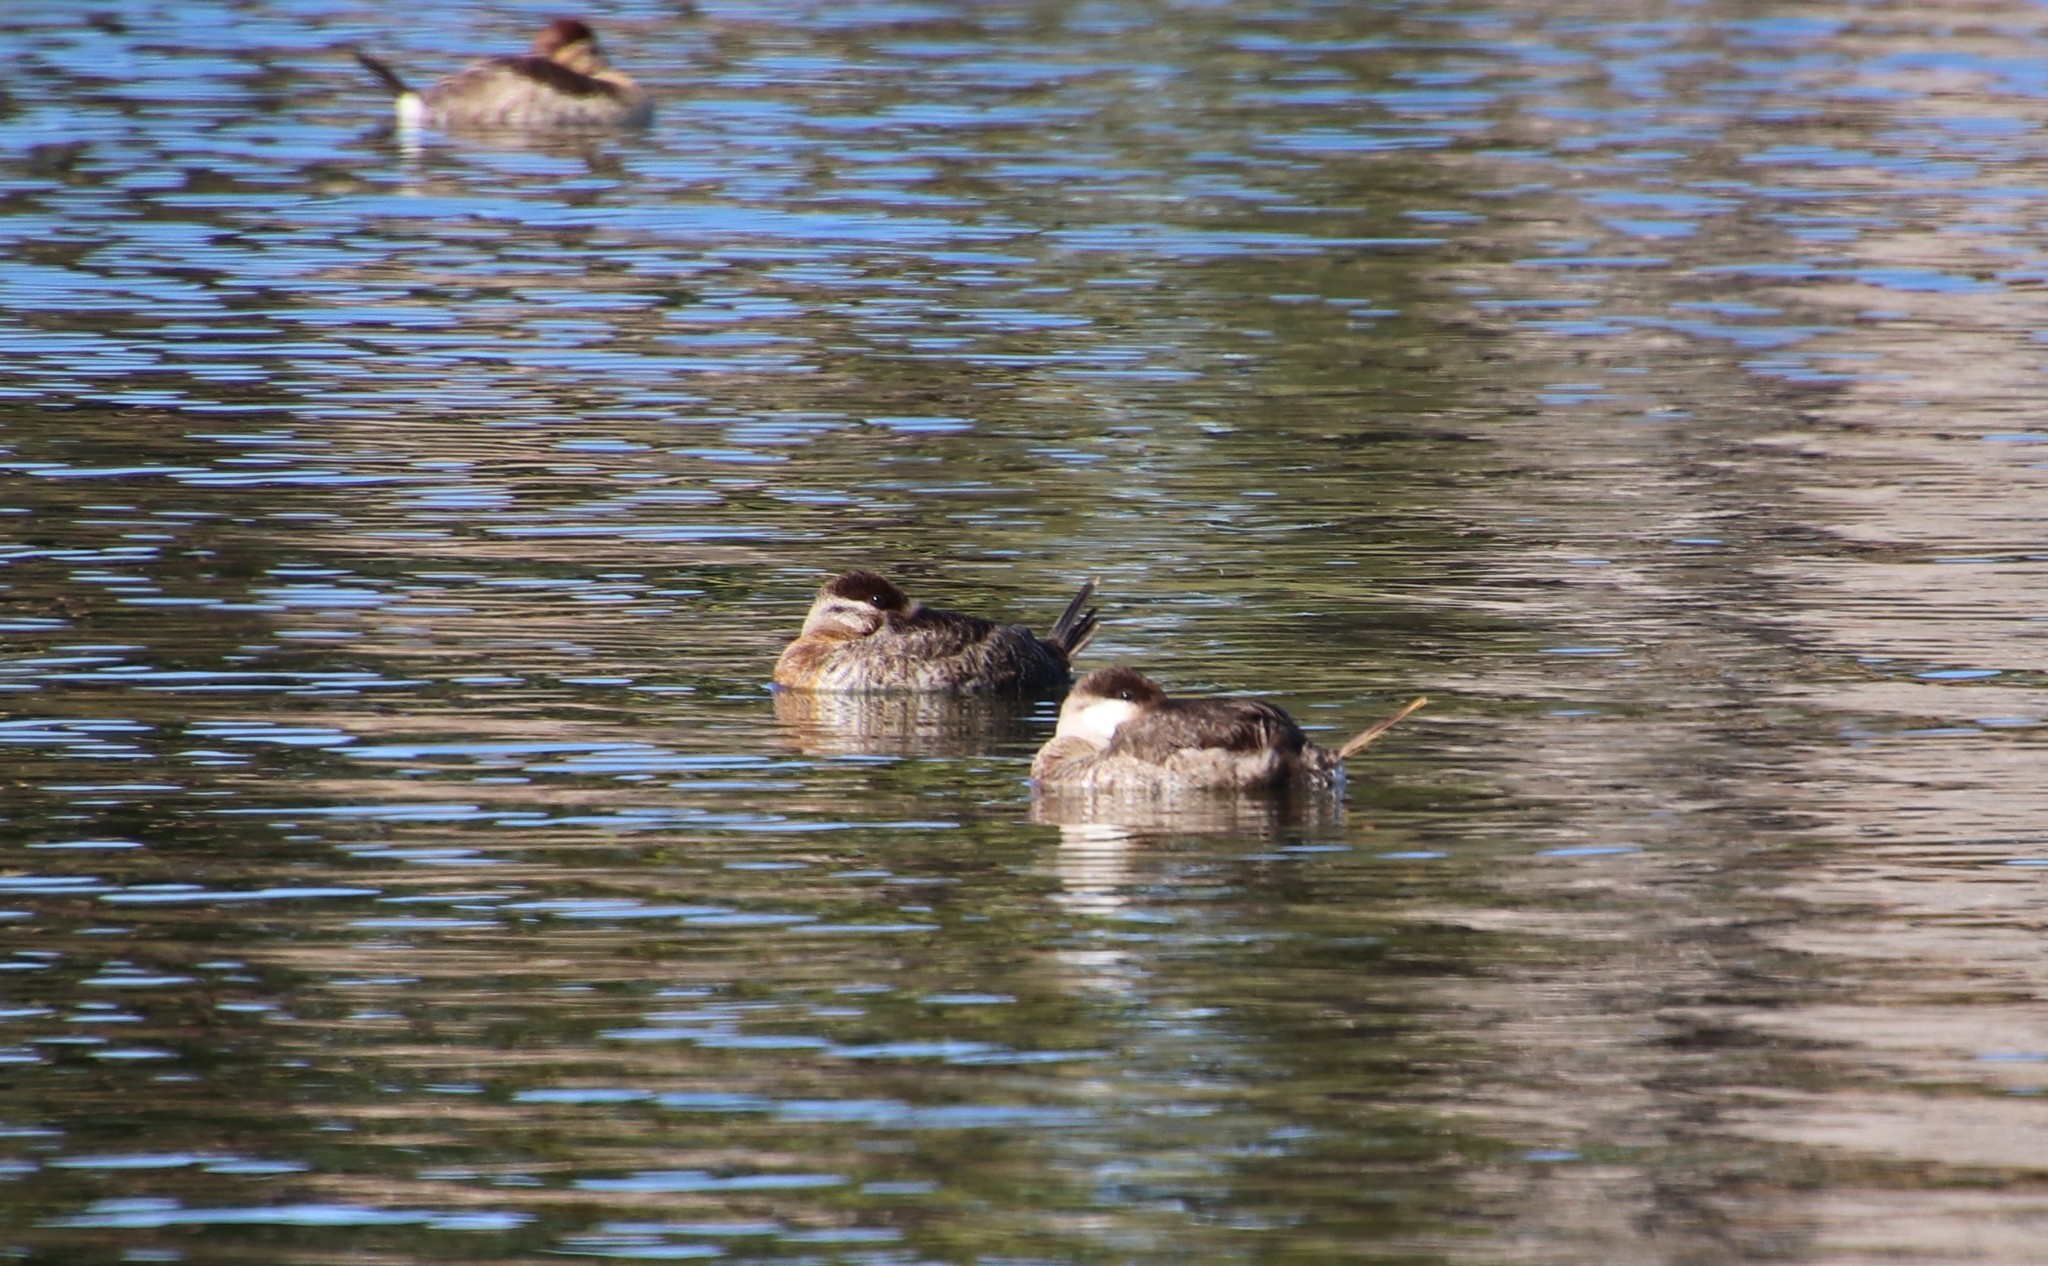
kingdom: Animalia
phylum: Chordata
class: Aves
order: Anseriformes
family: Anatidae
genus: Oxyura
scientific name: Oxyura jamaicensis
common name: Ruddy duck
